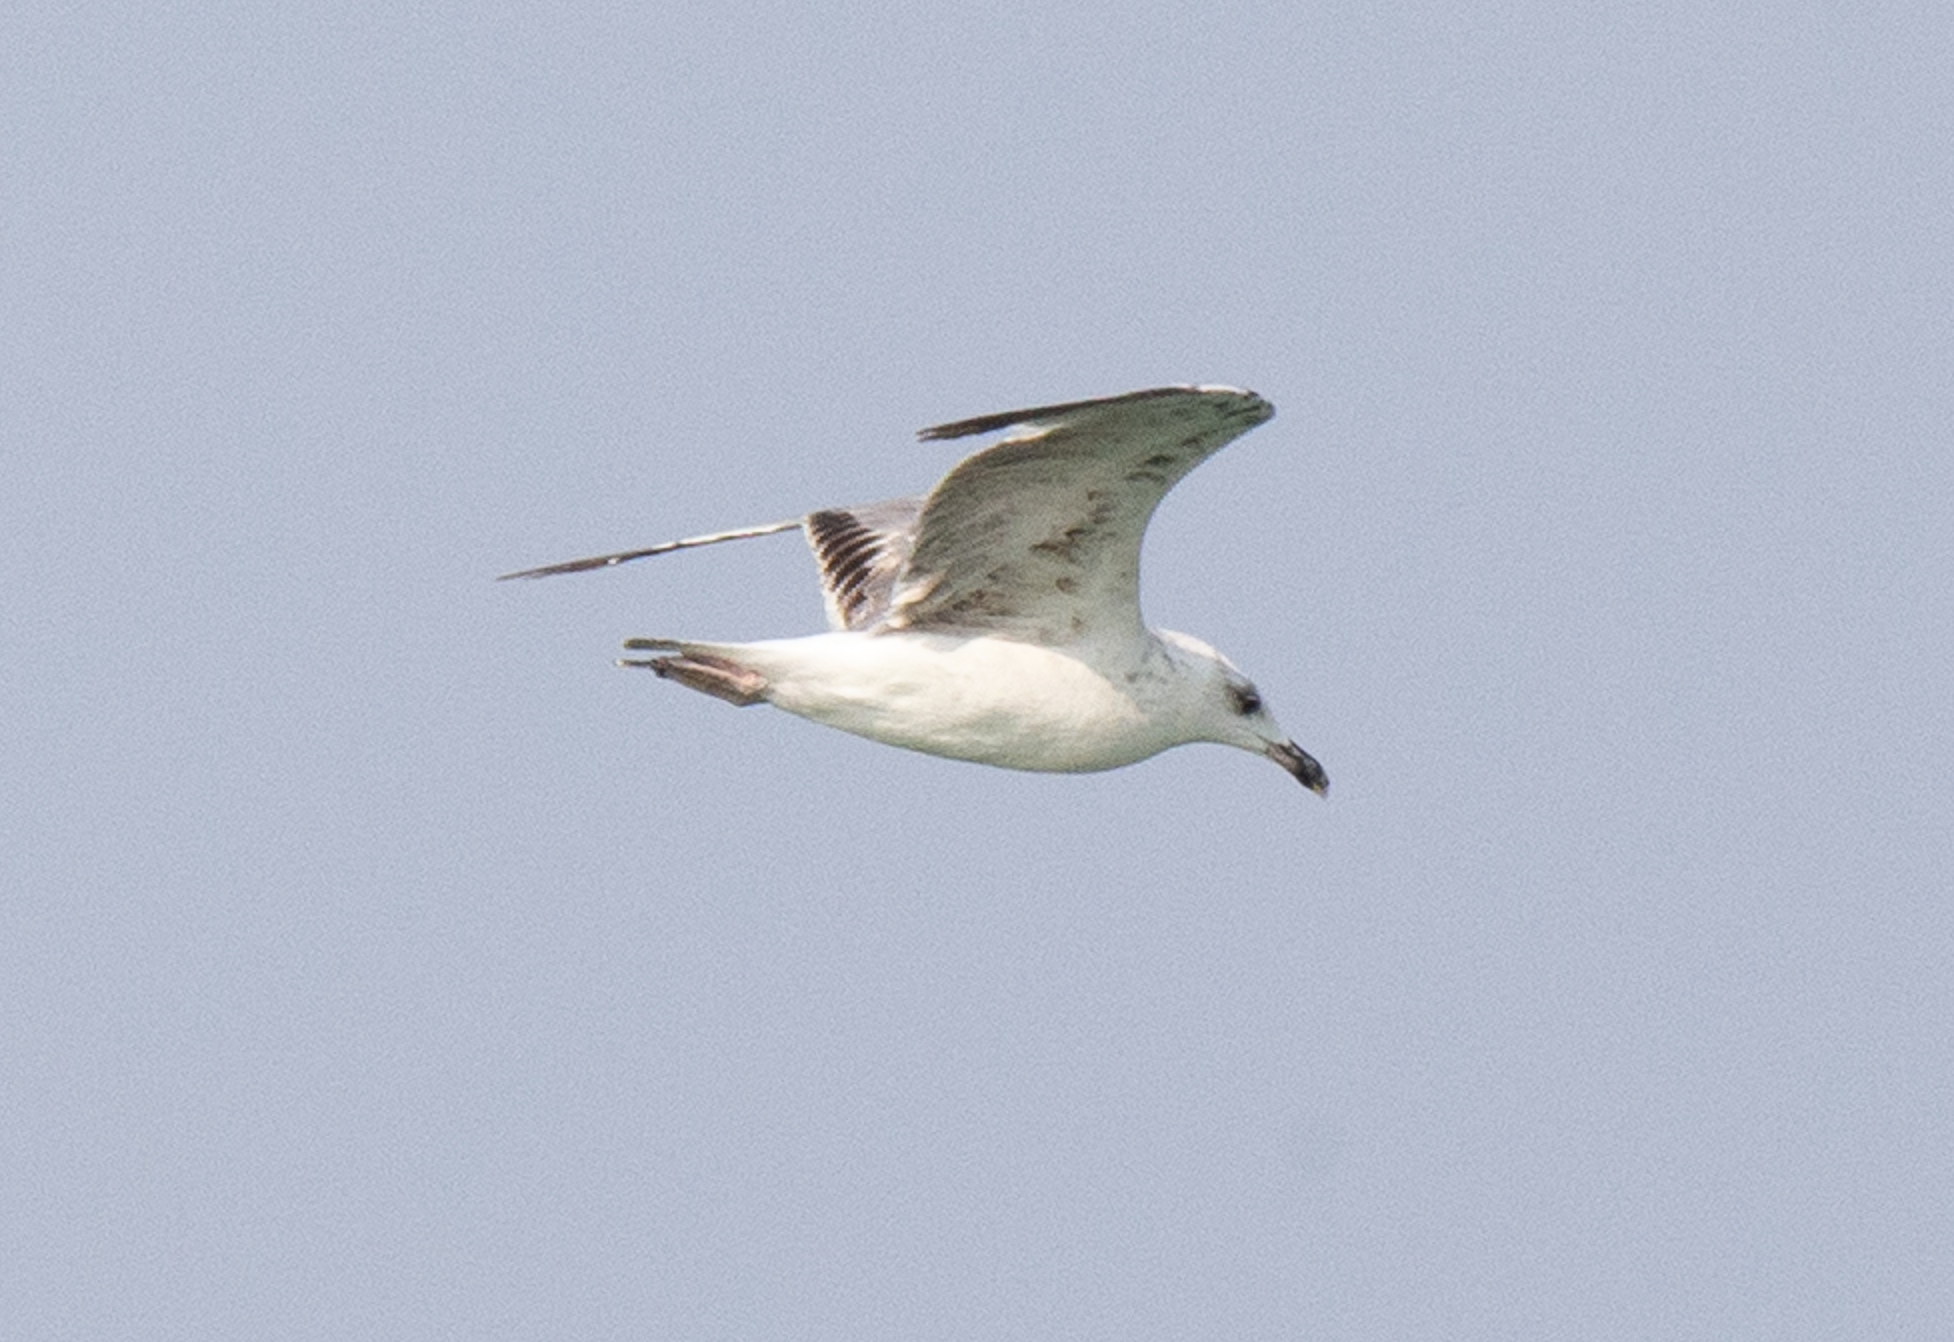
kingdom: Animalia
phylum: Chordata
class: Aves
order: Charadriiformes
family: Laridae
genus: Larus
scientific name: Larus michahellis
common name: Yellow-legged gull
